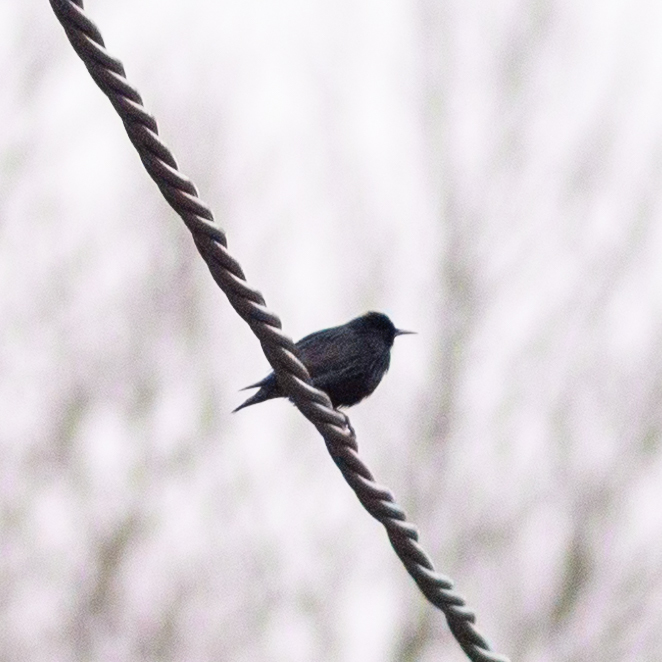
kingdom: Animalia
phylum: Chordata
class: Aves
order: Passeriformes
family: Sturnidae
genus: Sturnus
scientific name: Sturnus unicolor
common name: Spotless starling
